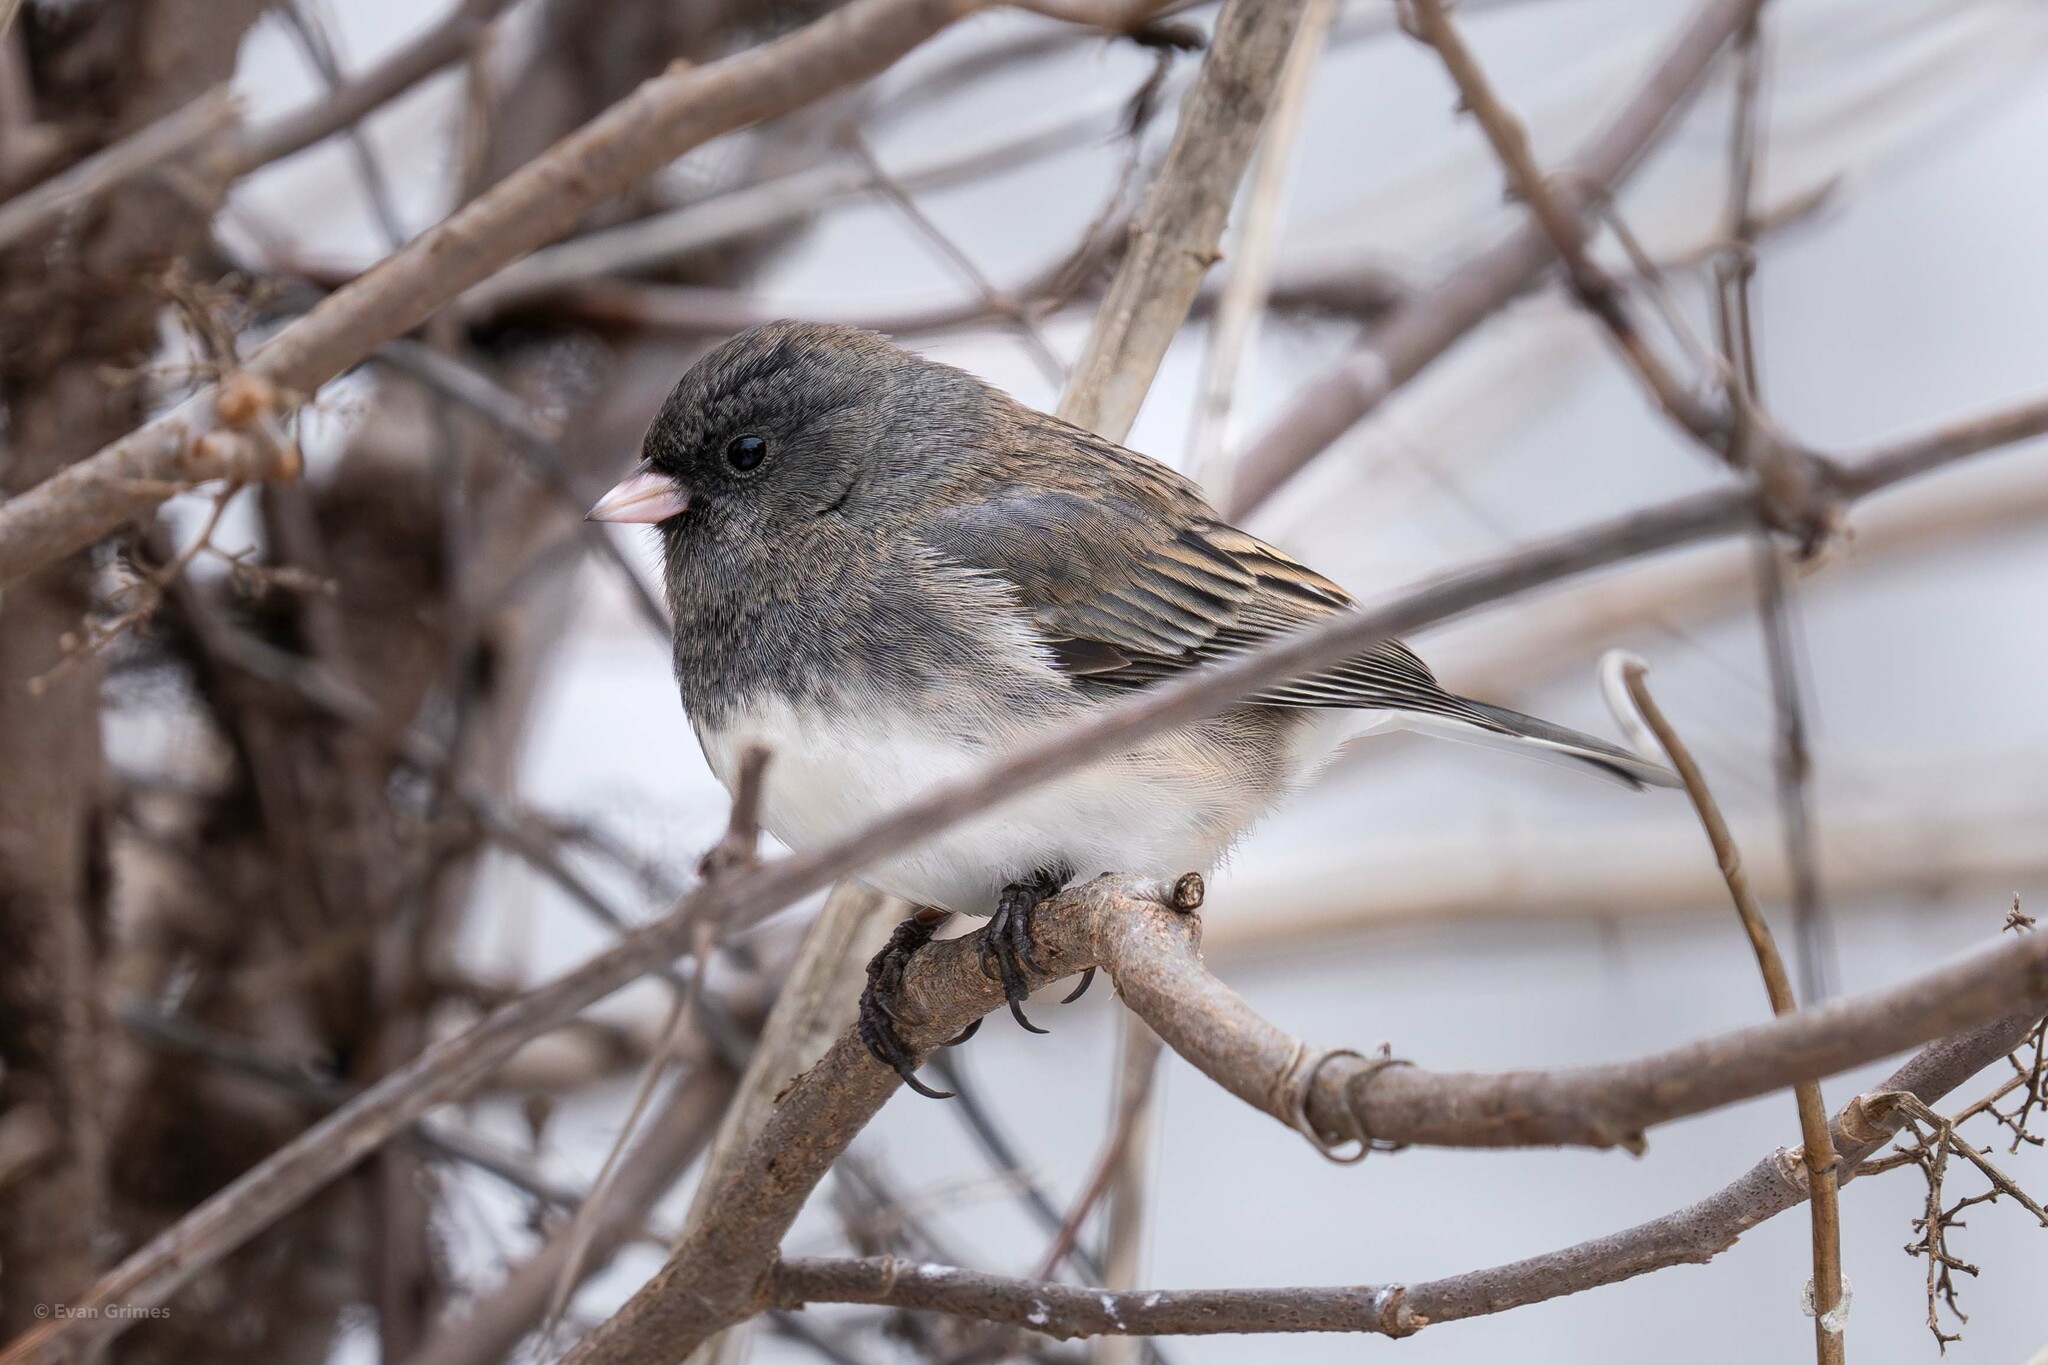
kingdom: Animalia
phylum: Chordata
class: Aves
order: Passeriformes
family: Passerellidae
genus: Junco
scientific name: Junco hyemalis
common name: Dark-eyed junco
